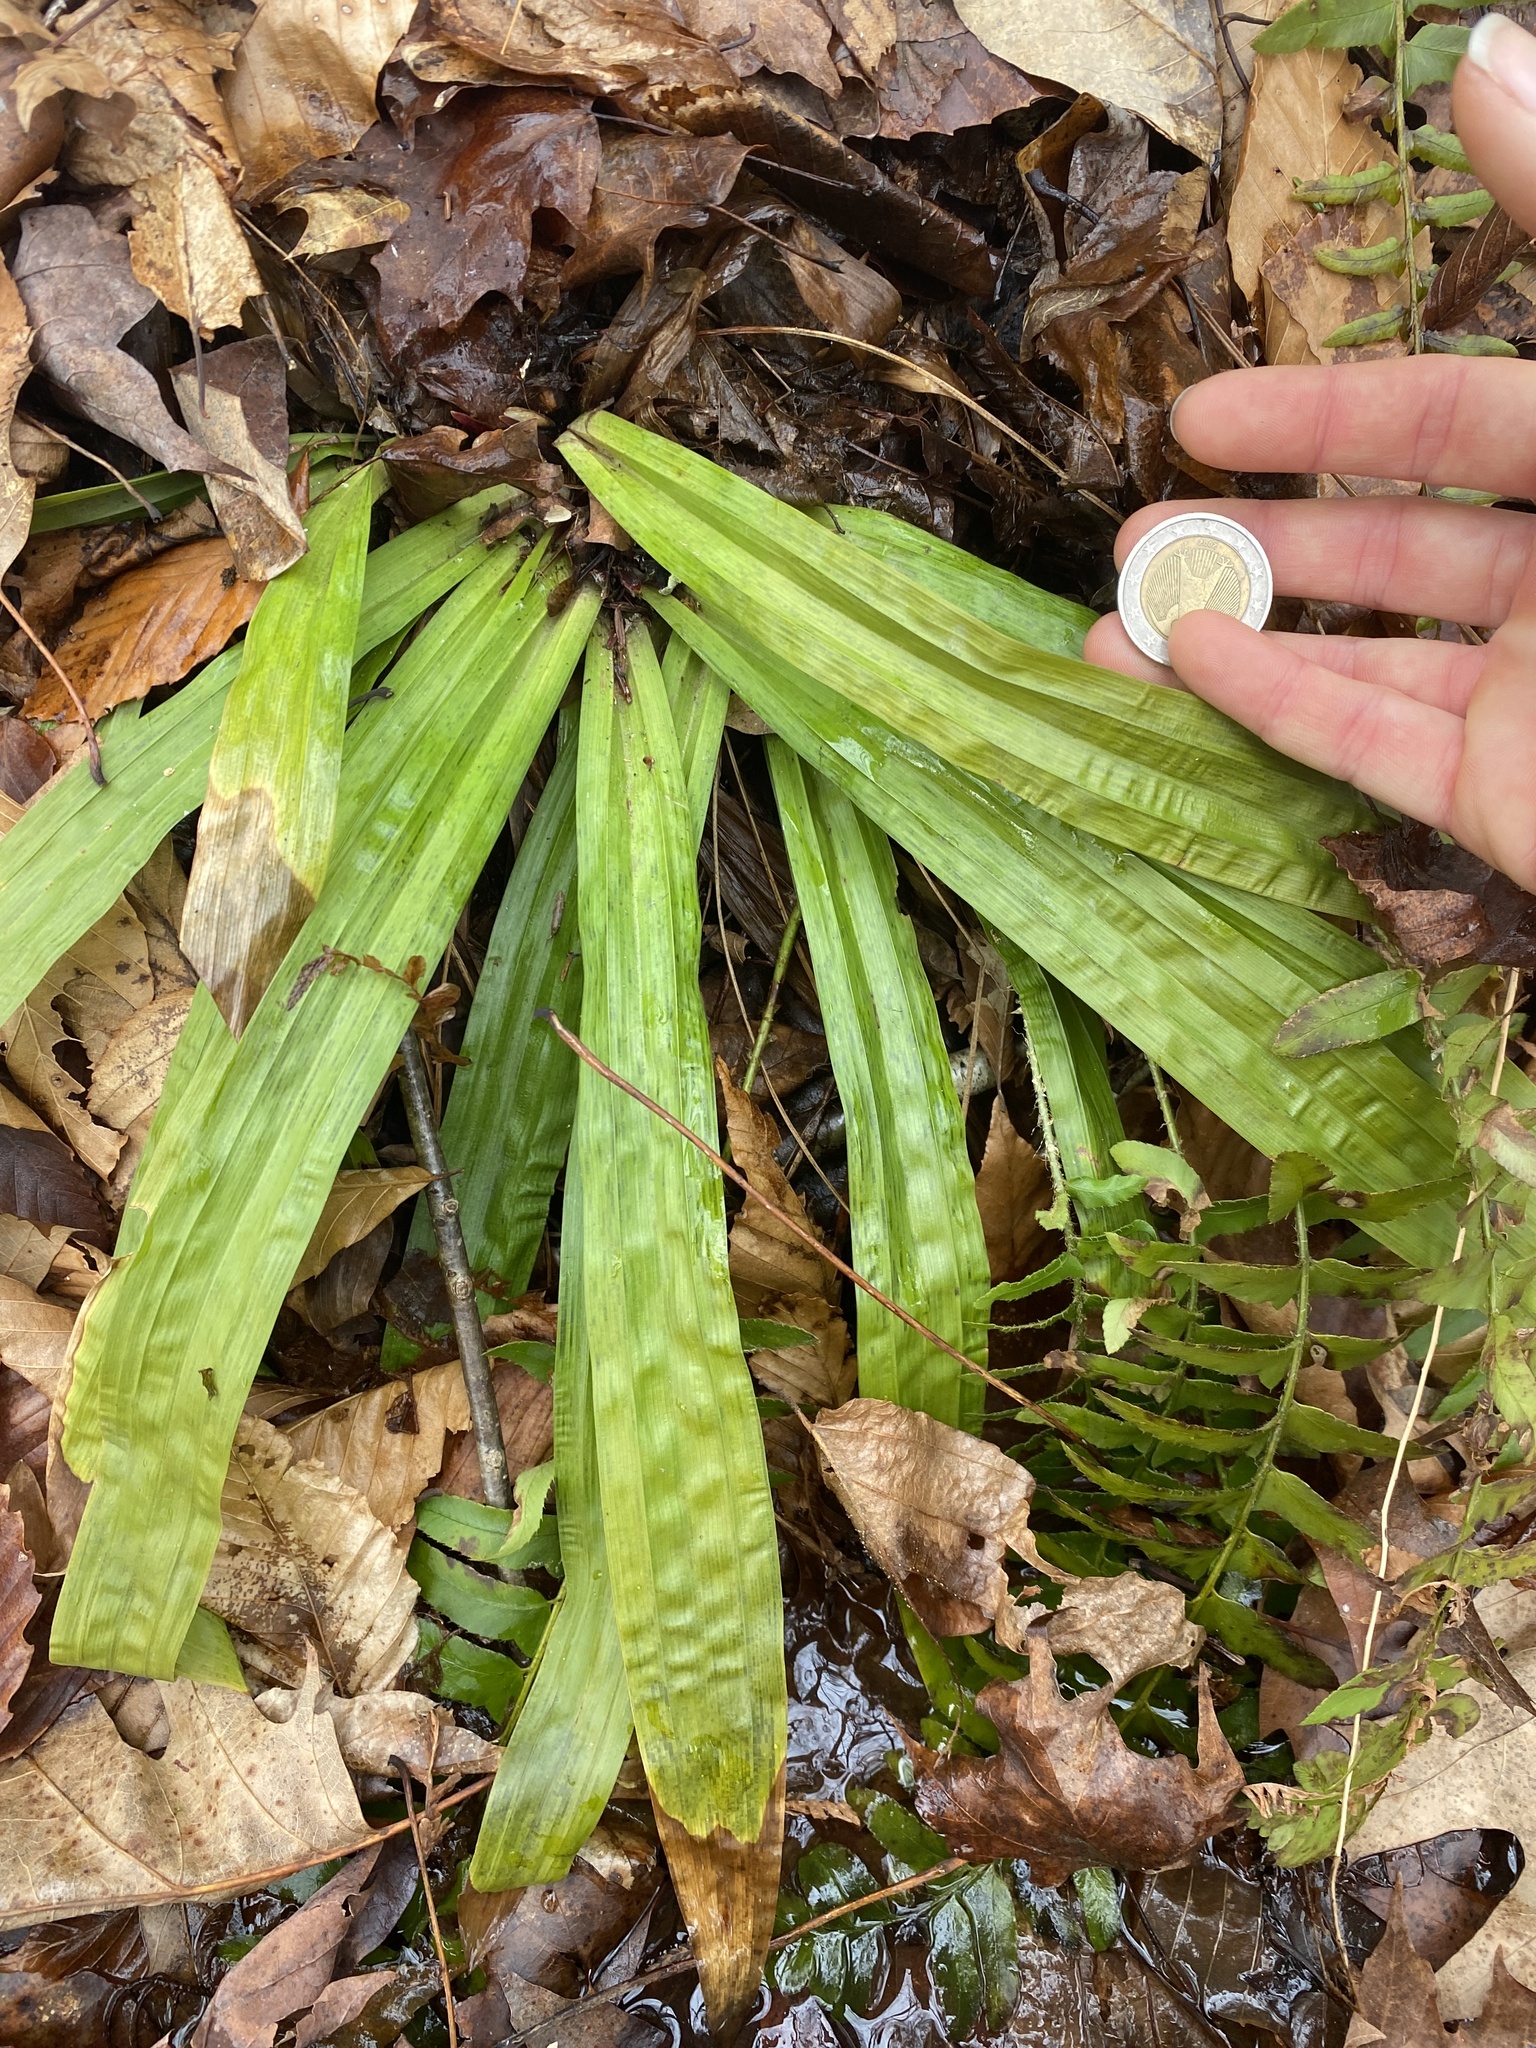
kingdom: Plantae
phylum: Tracheophyta
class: Liliopsida
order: Poales
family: Cyperaceae
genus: Carex
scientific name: Carex plantaginea
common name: Plantain-leaved sedge
